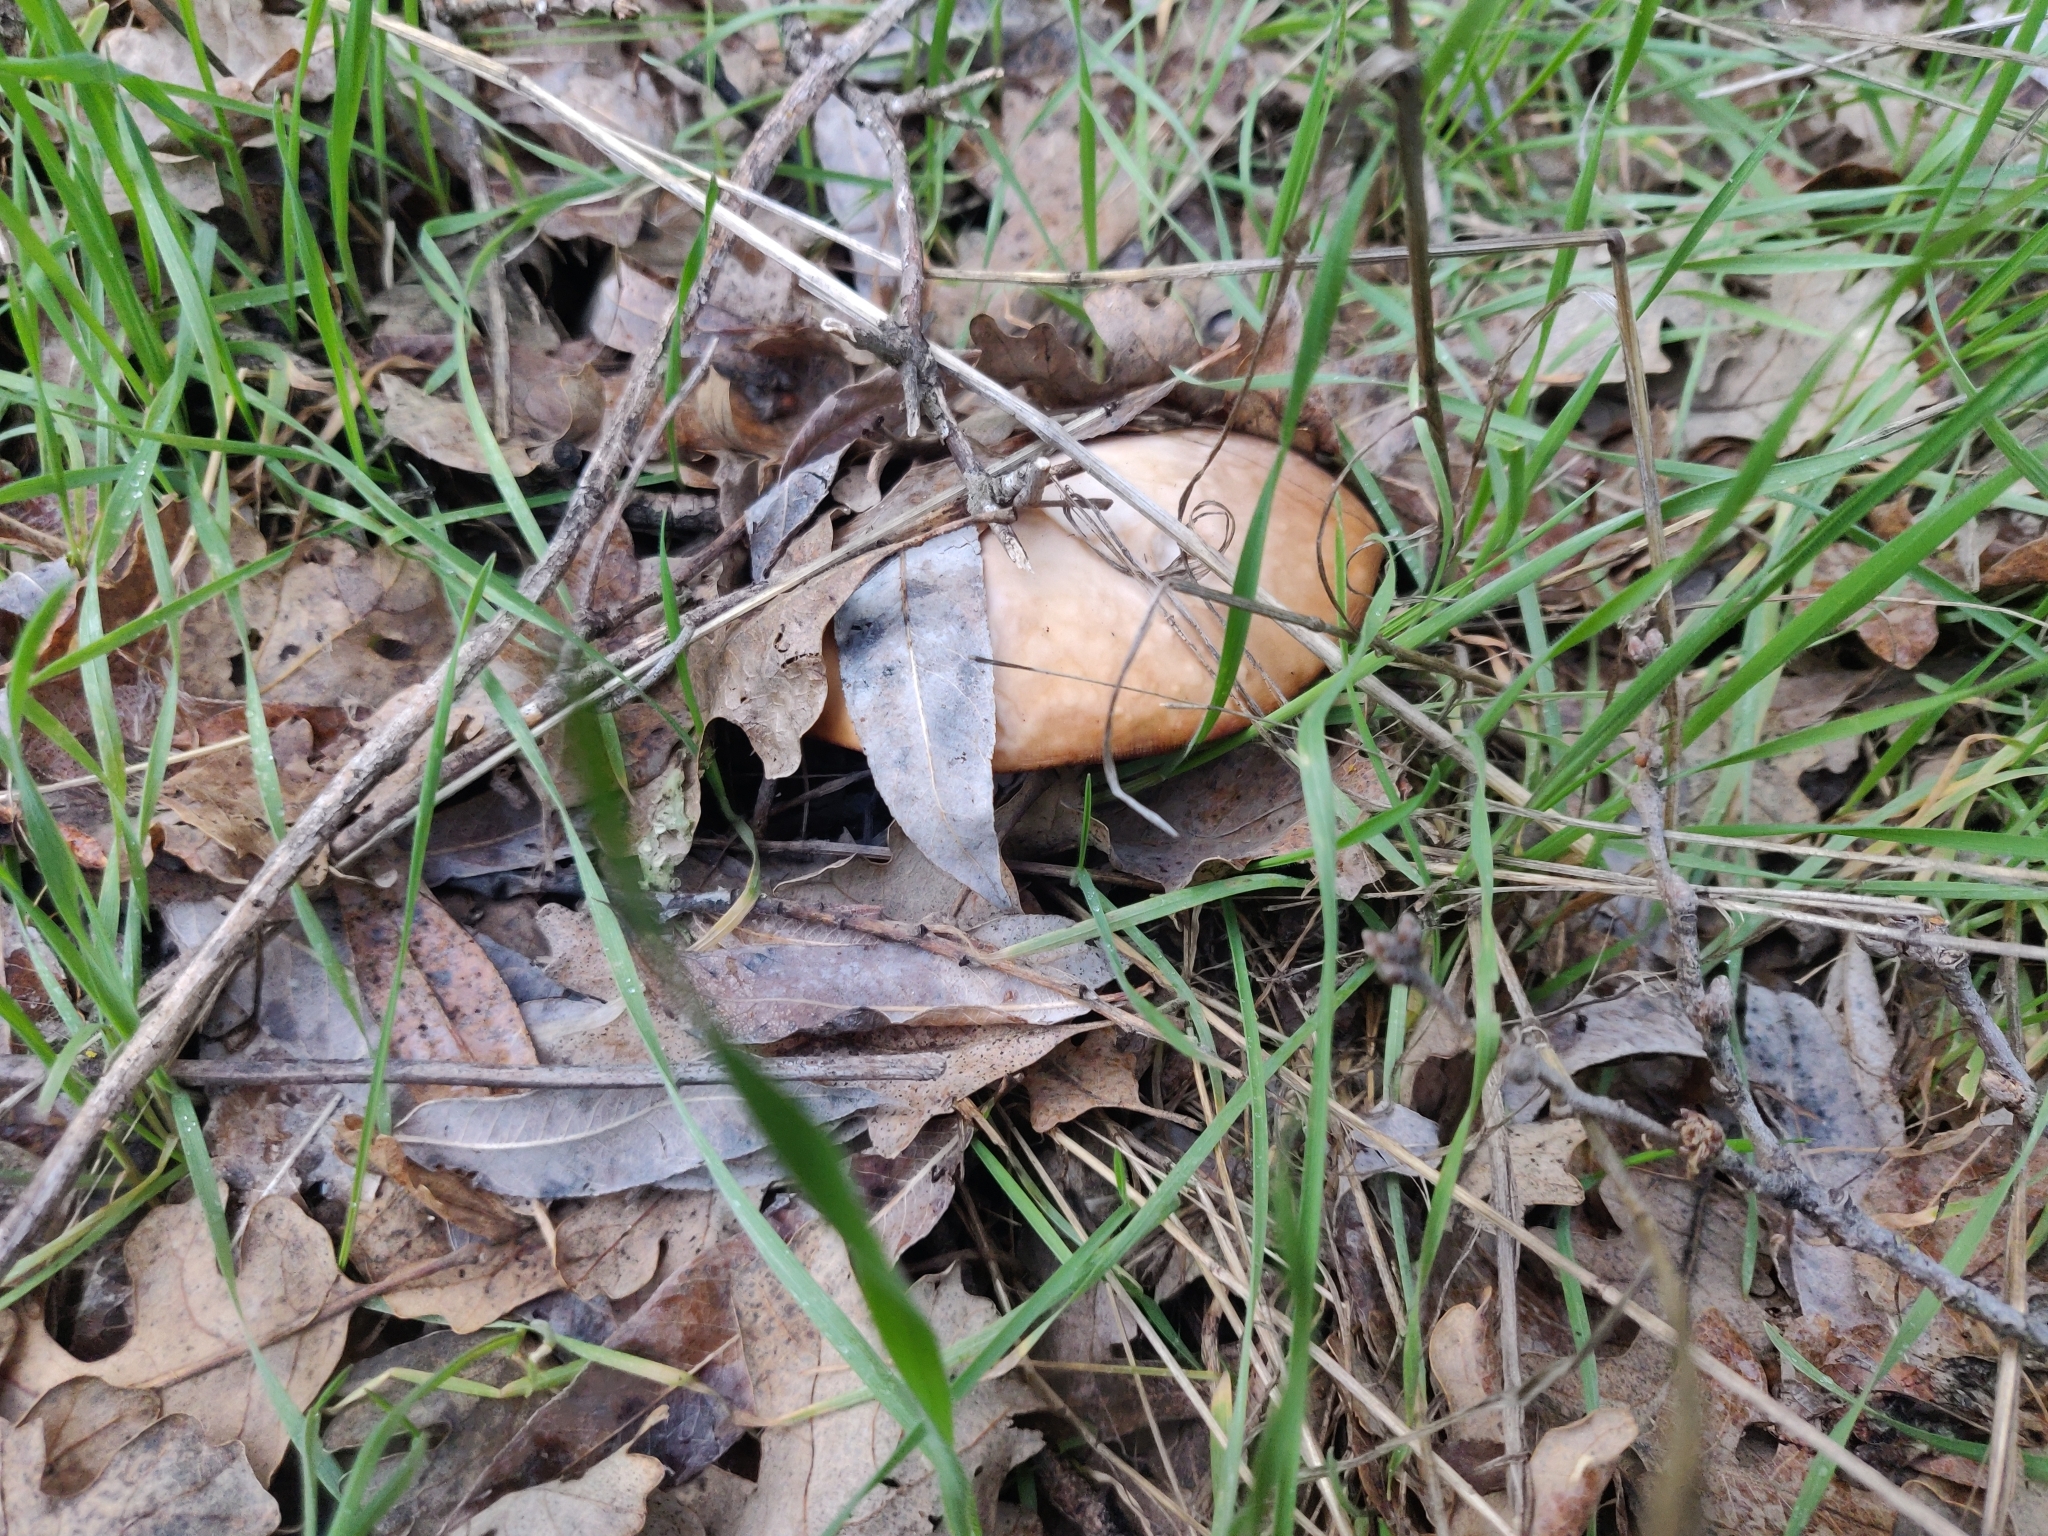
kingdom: Fungi
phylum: Basidiomycota
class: Agaricomycetes
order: Agaricales
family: Tricholomataceae
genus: Collybia
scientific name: Collybia
